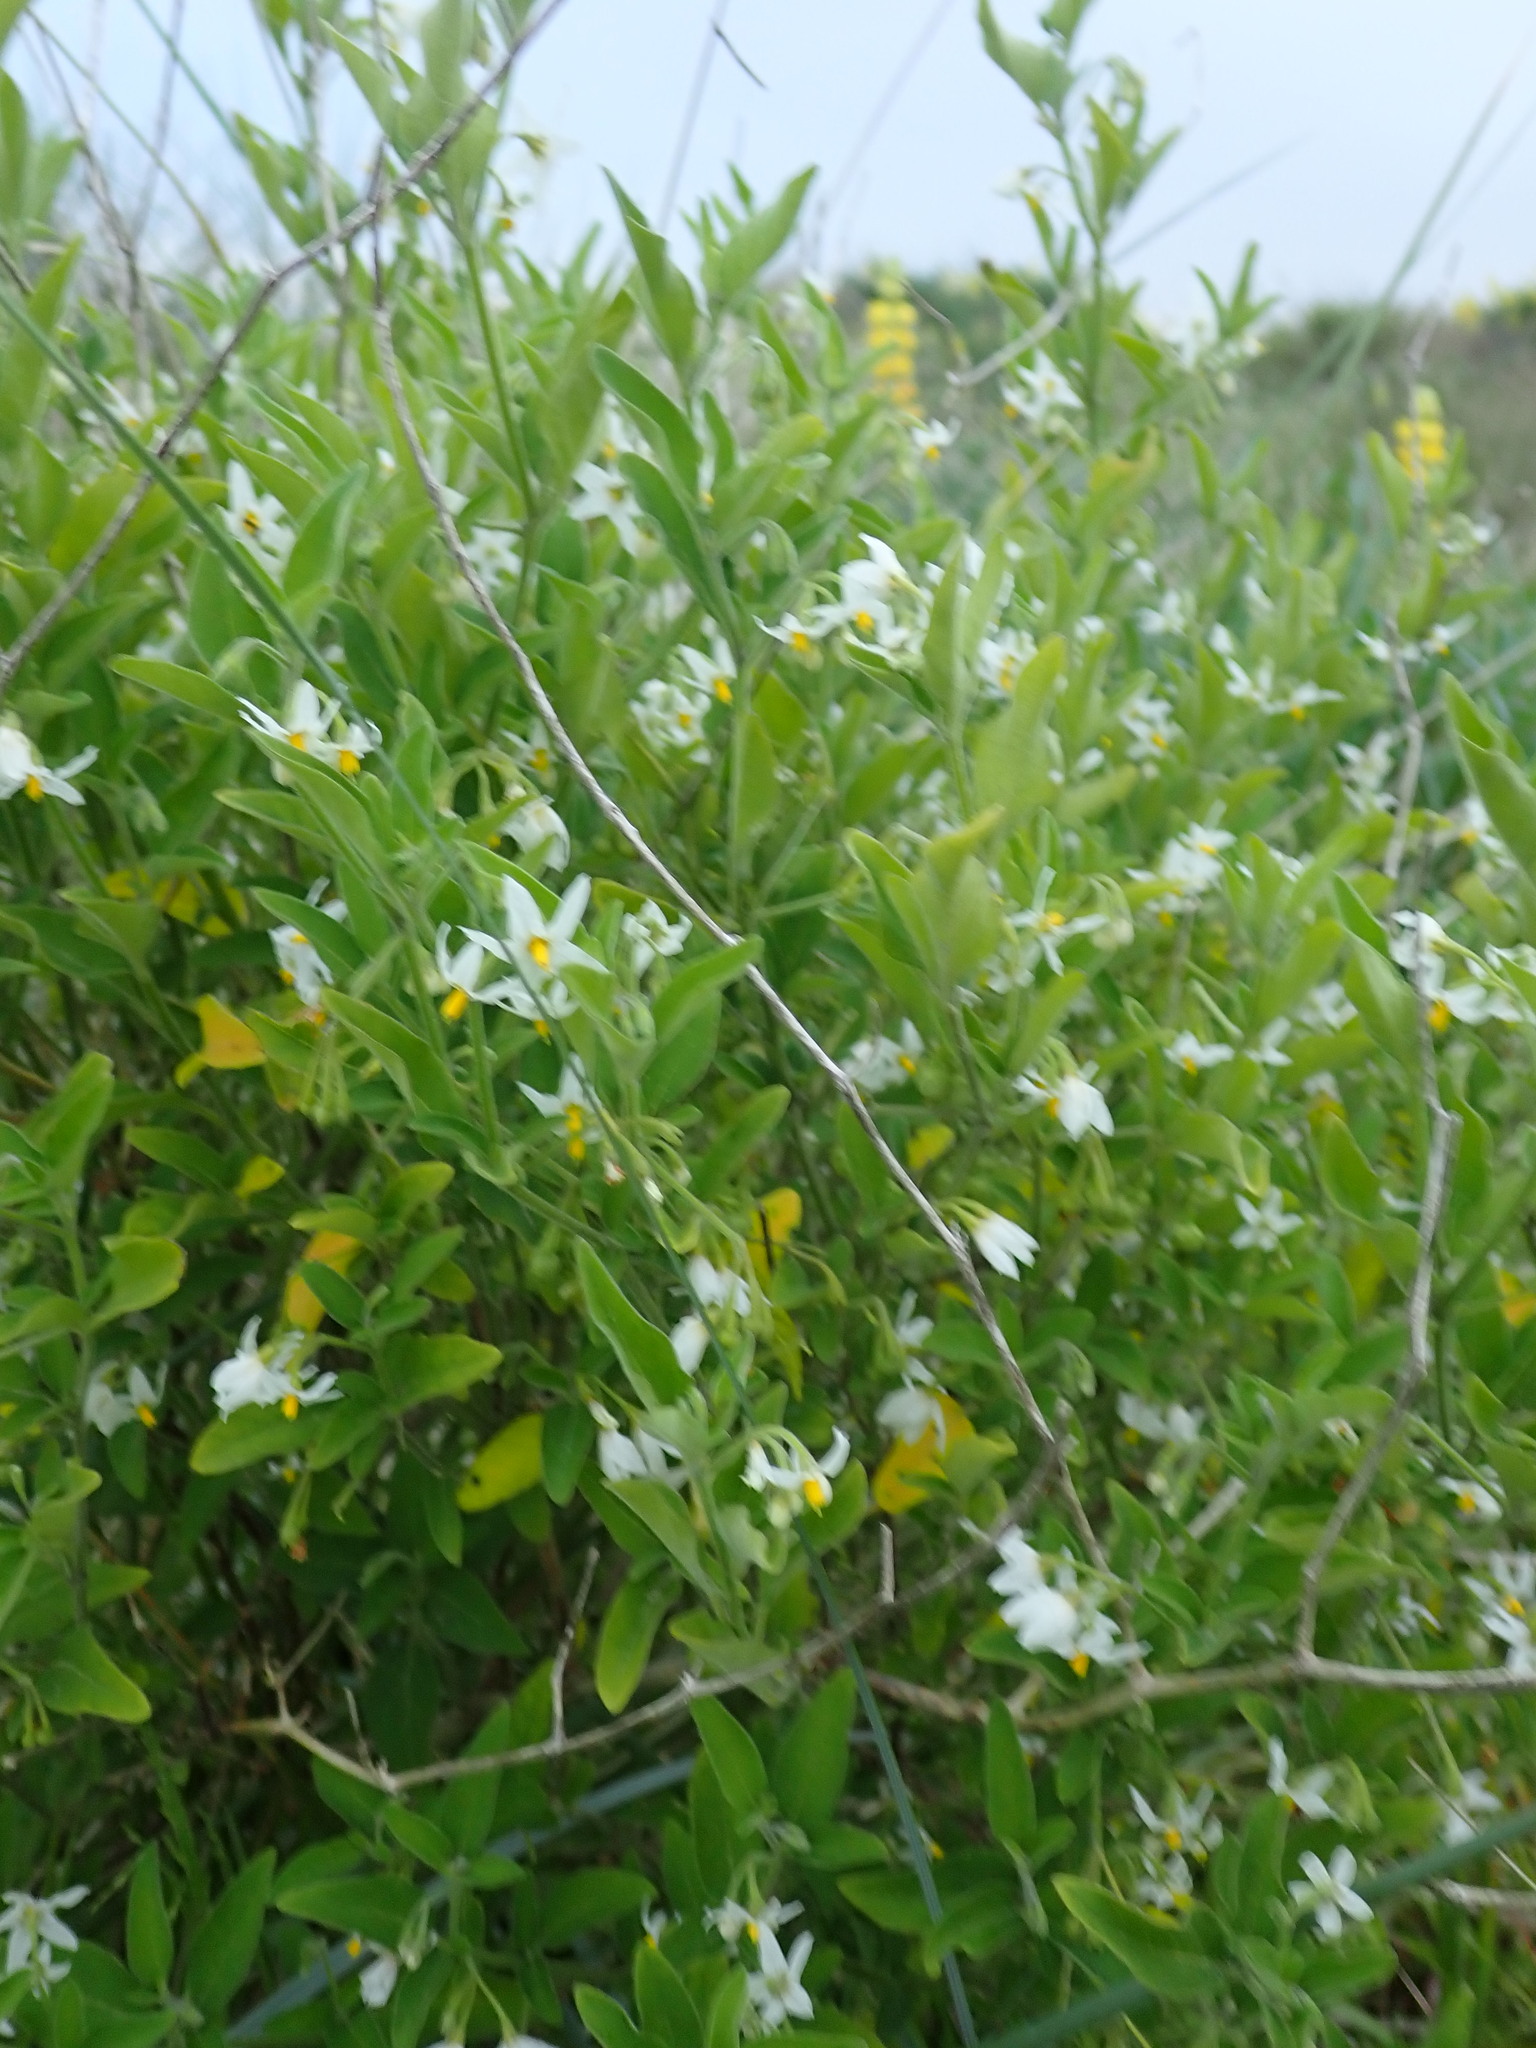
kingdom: Plantae
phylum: Tracheophyta
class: Magnoliopsida
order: Solanales
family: Solanaceae
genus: Solanum
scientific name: Solanum chenopodioides
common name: Tall nightshade
